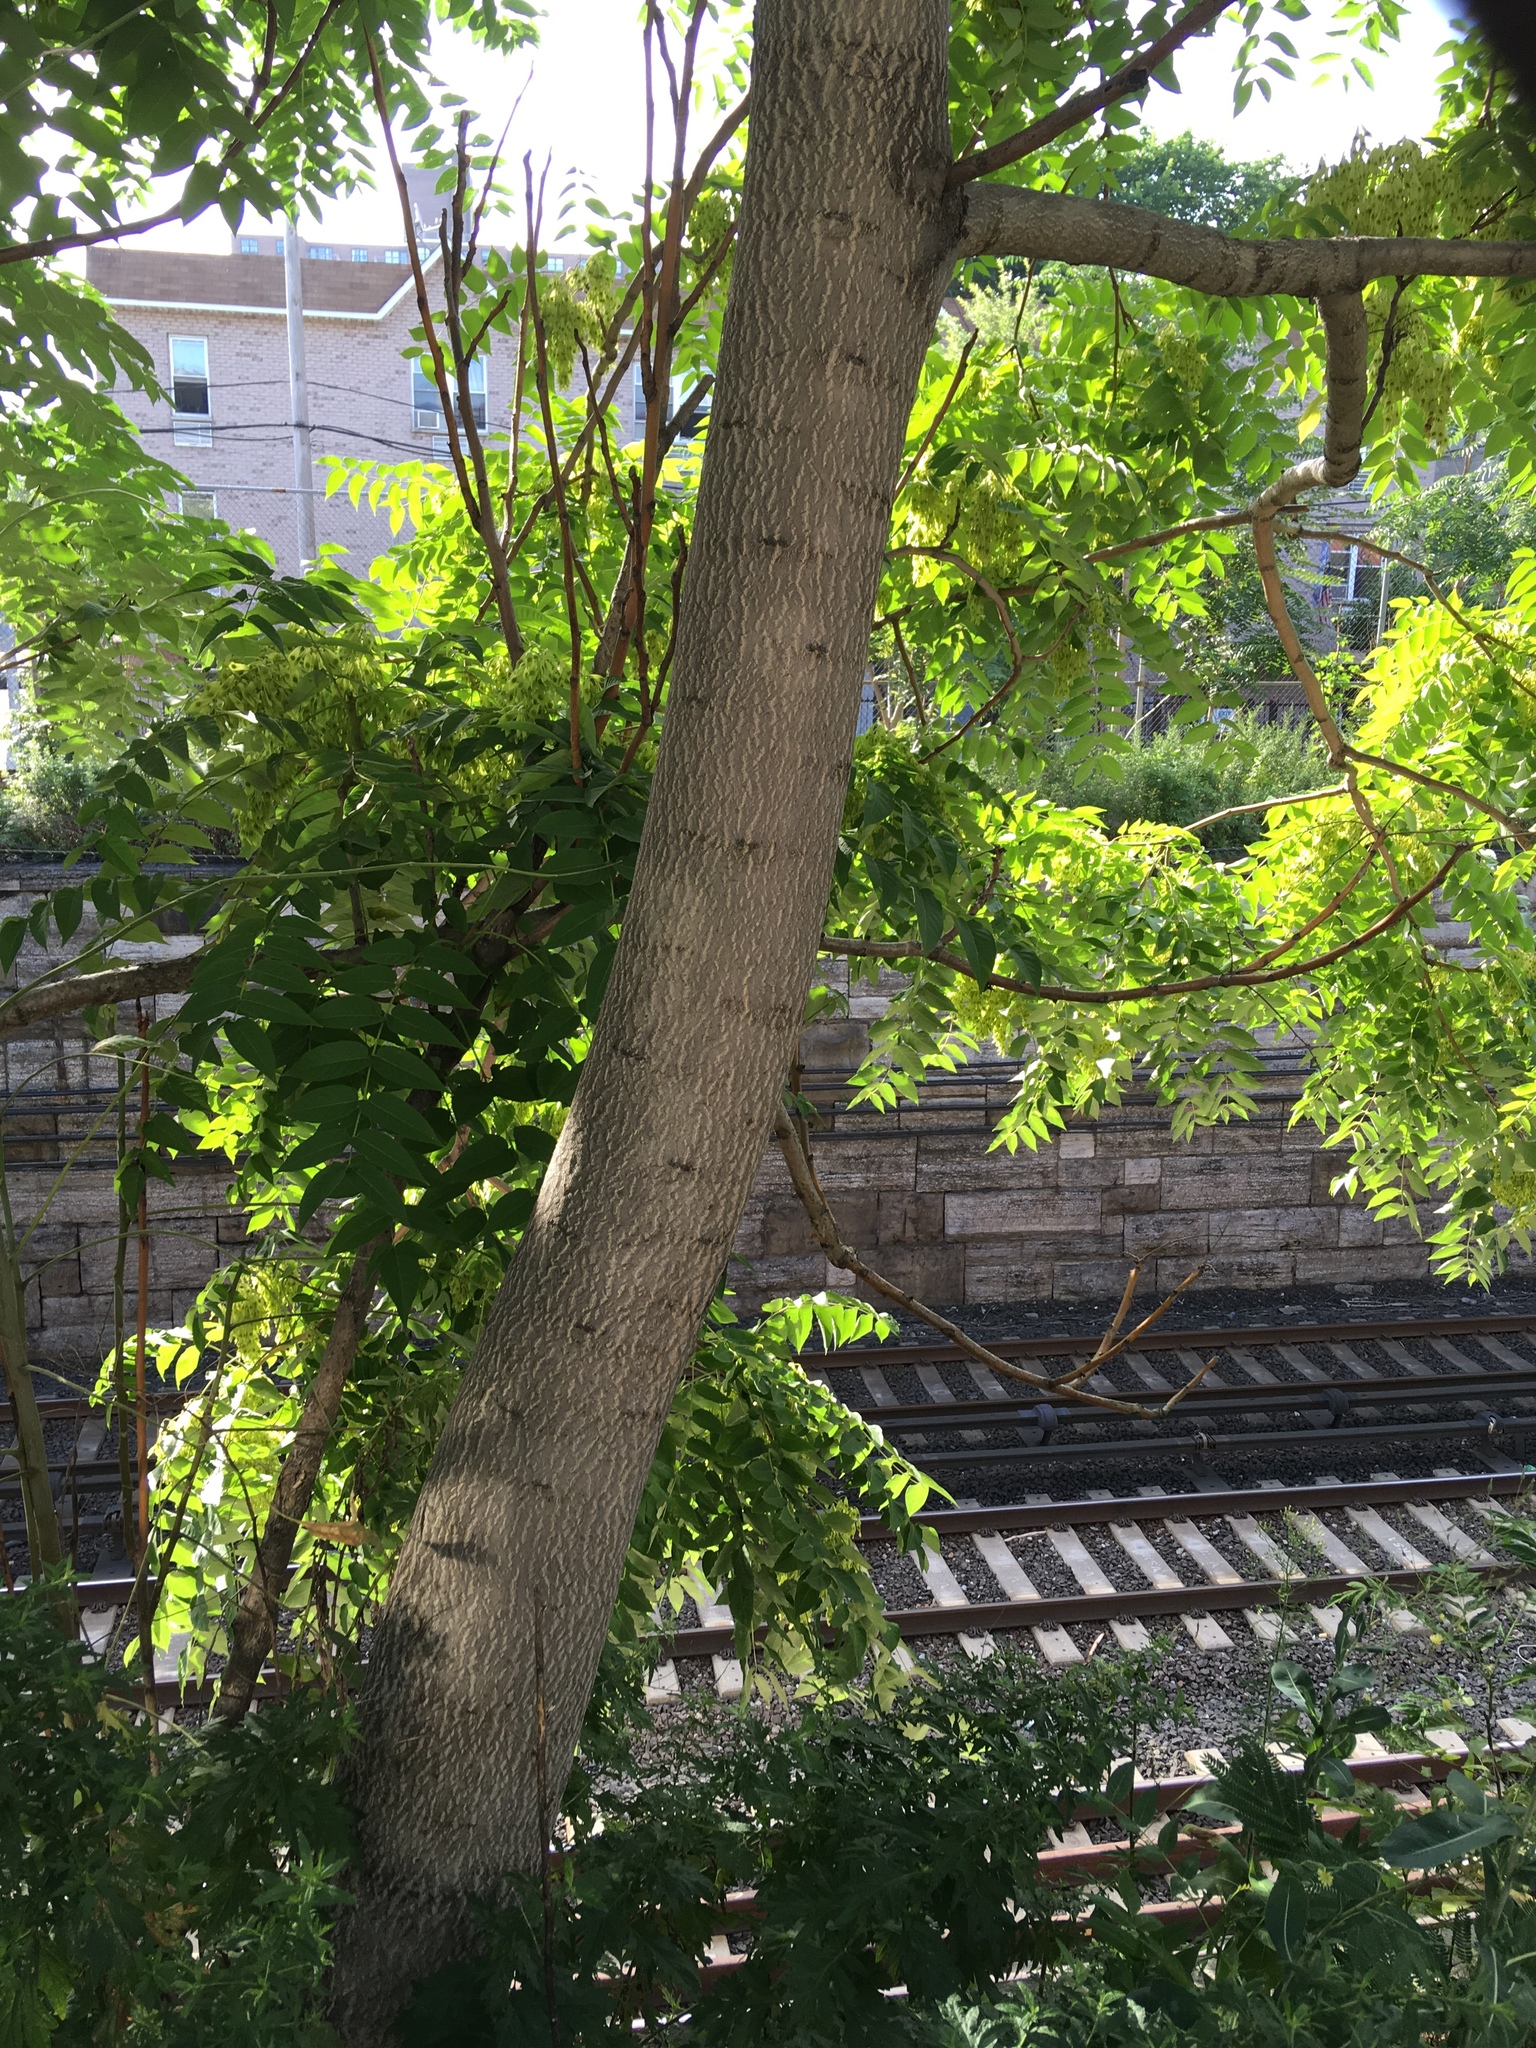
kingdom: Plantae
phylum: Tracheophyta
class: Magnoliopsida
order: Sapindales
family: Simaroubaceae
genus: Ailanthus
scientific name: Ailanthus altissima
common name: Tree-of-heaven
